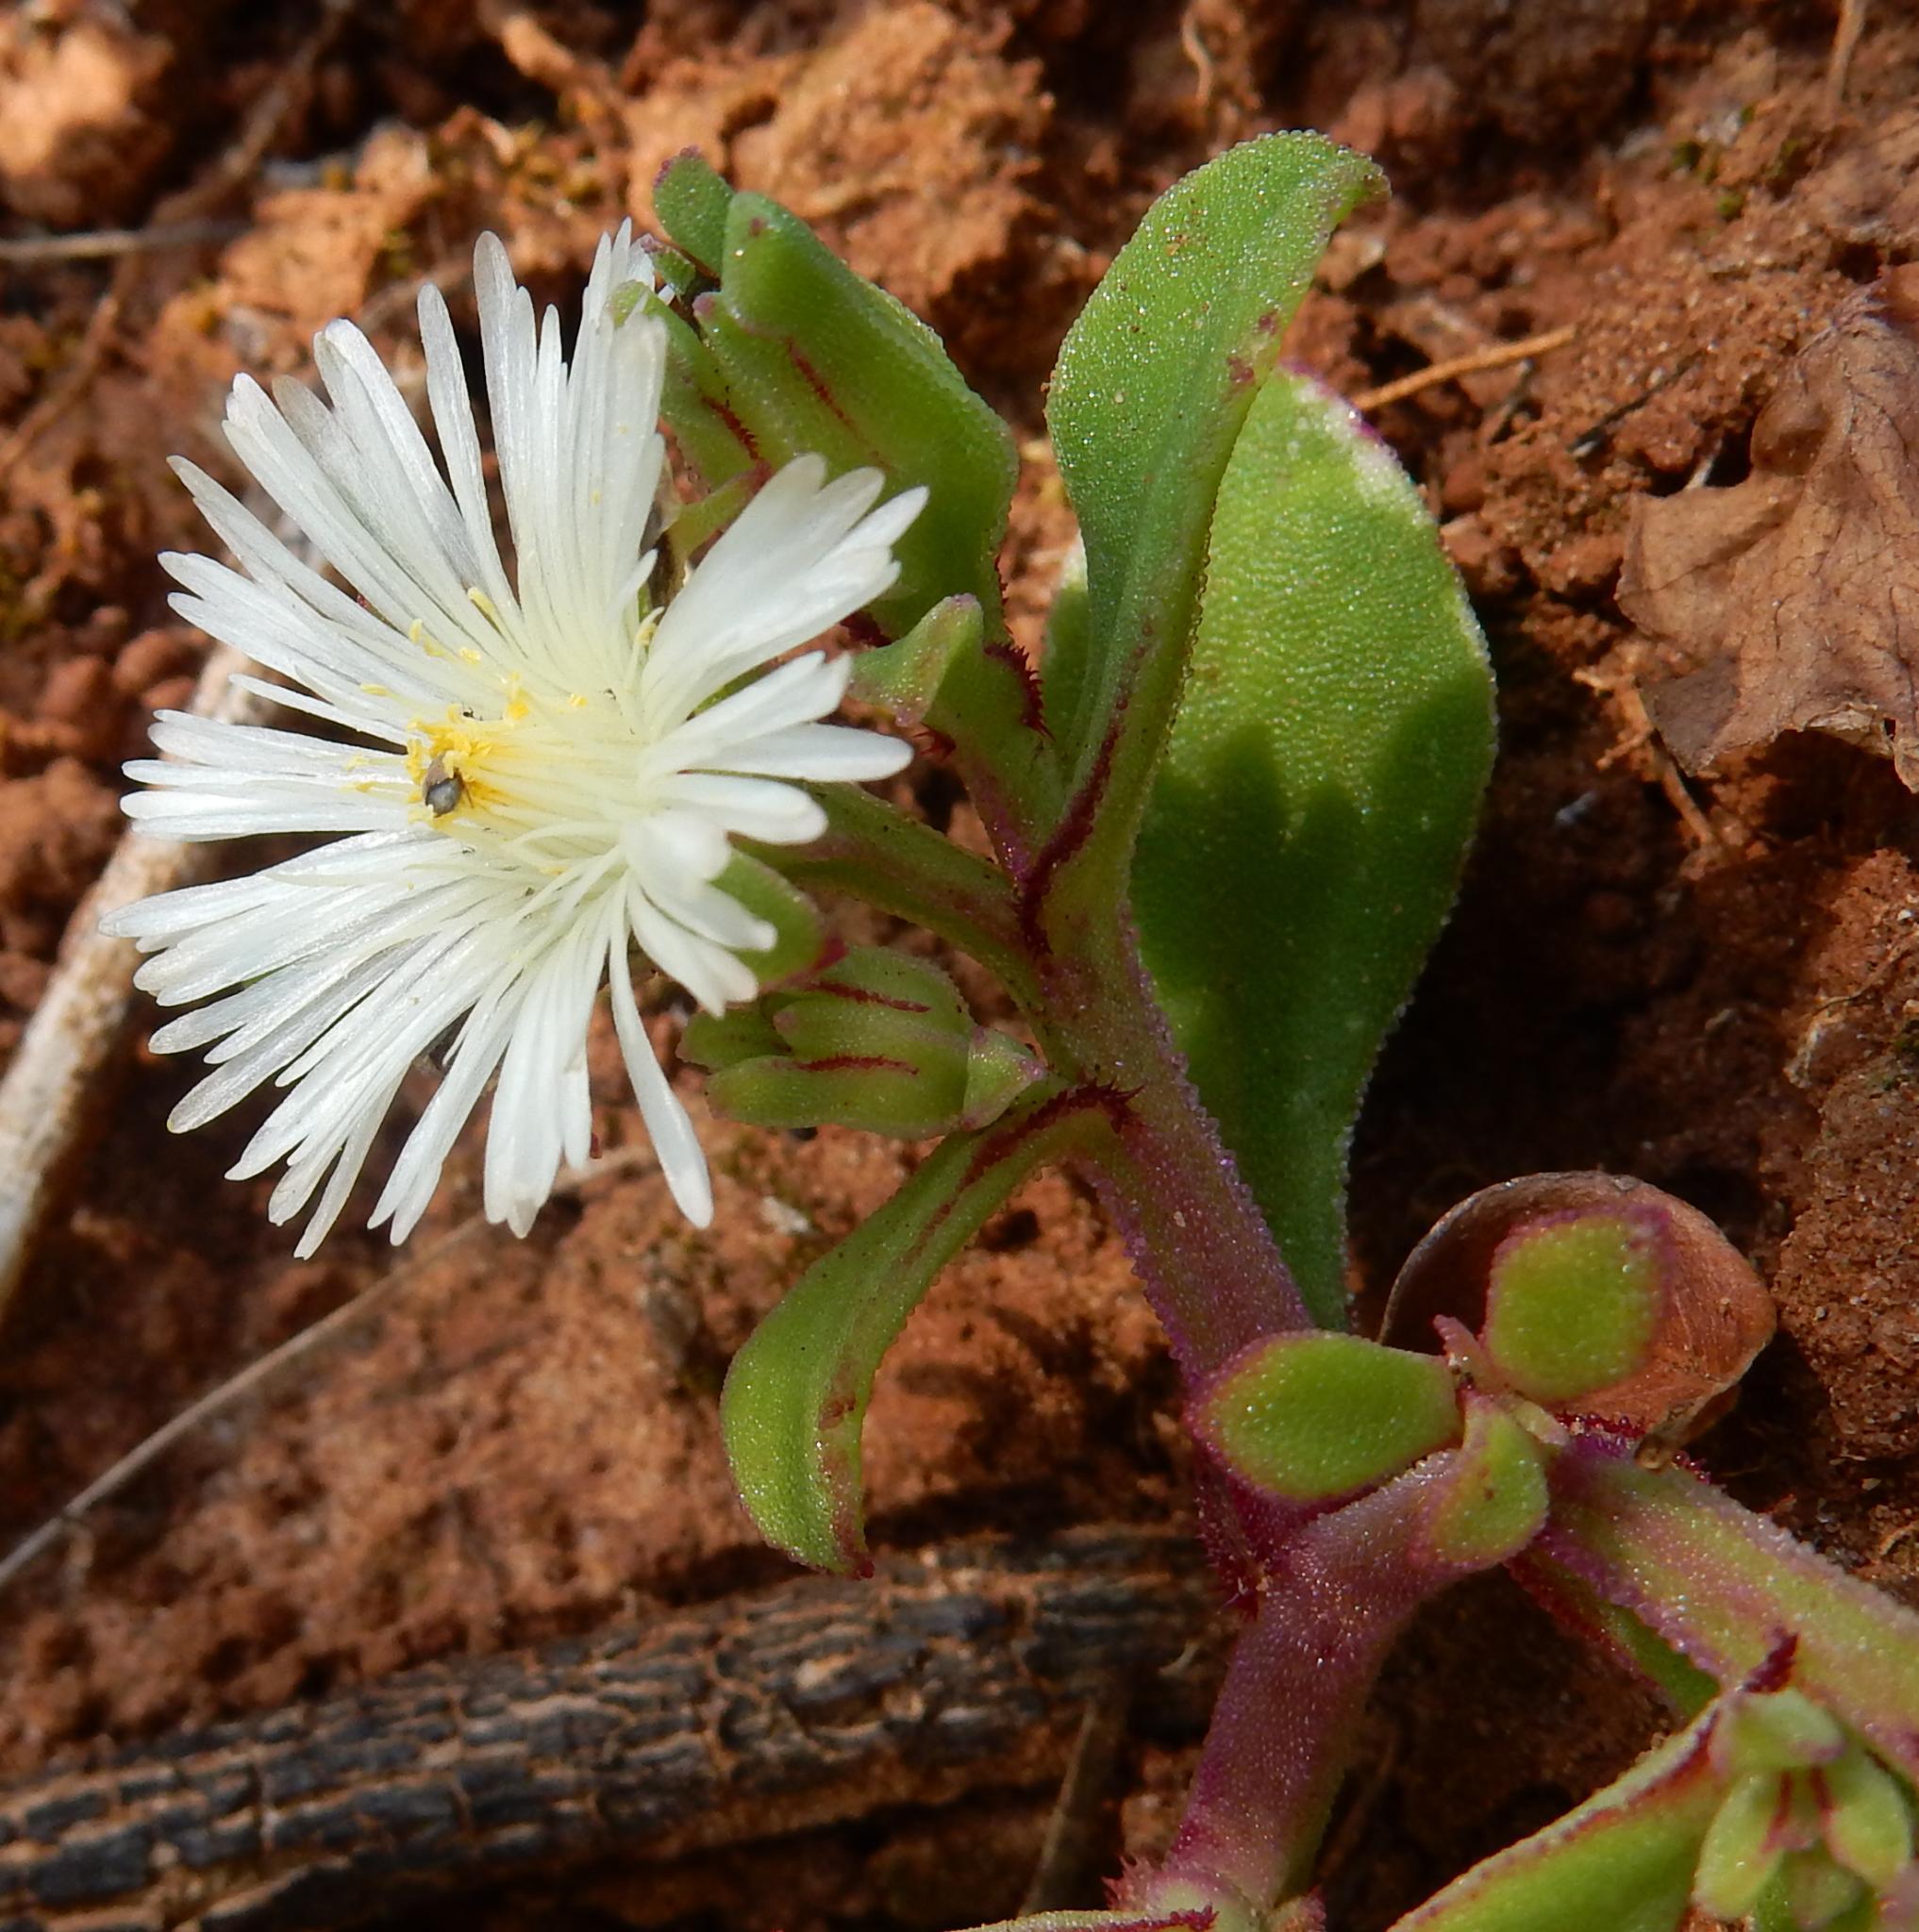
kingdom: Plantae
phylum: Tracheophyta
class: Magnoliopsida
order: Caryophyllales
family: Aizoaceae
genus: Mesembryanthemum
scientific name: Mesembryanthemum aitonis
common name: Angled iceplant
